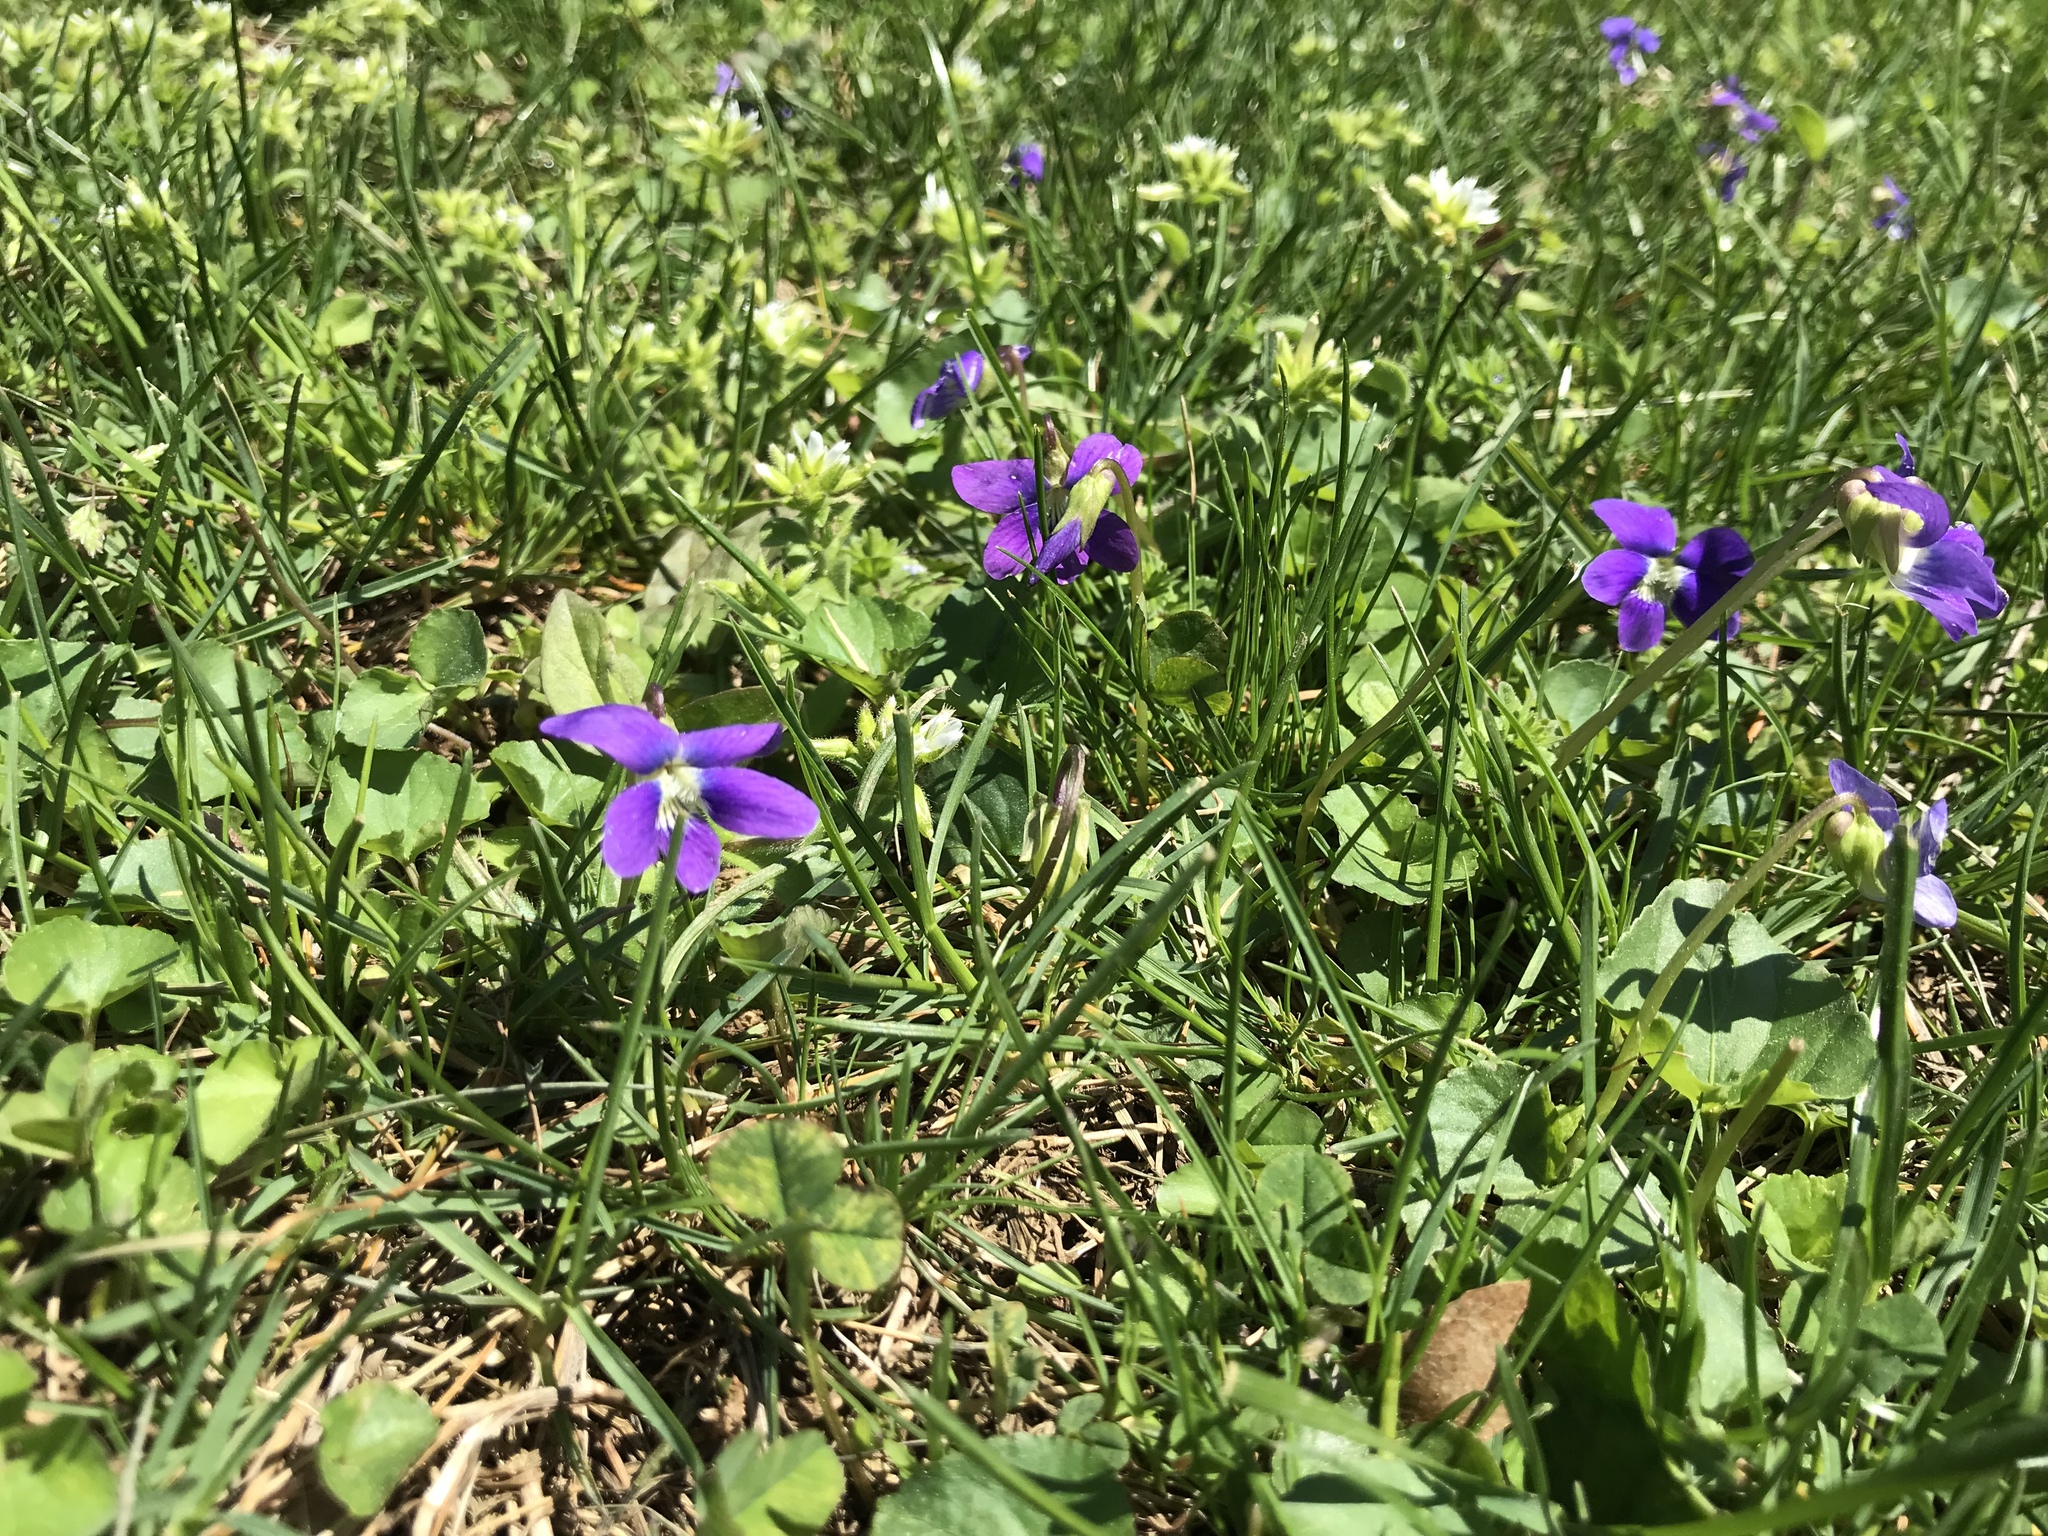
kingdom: Plantae
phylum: Tracheophyta
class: Magnoliopsida
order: Malpighiales
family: Violaceae
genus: Viola
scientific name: Viola sororia
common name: Dooryard violet
